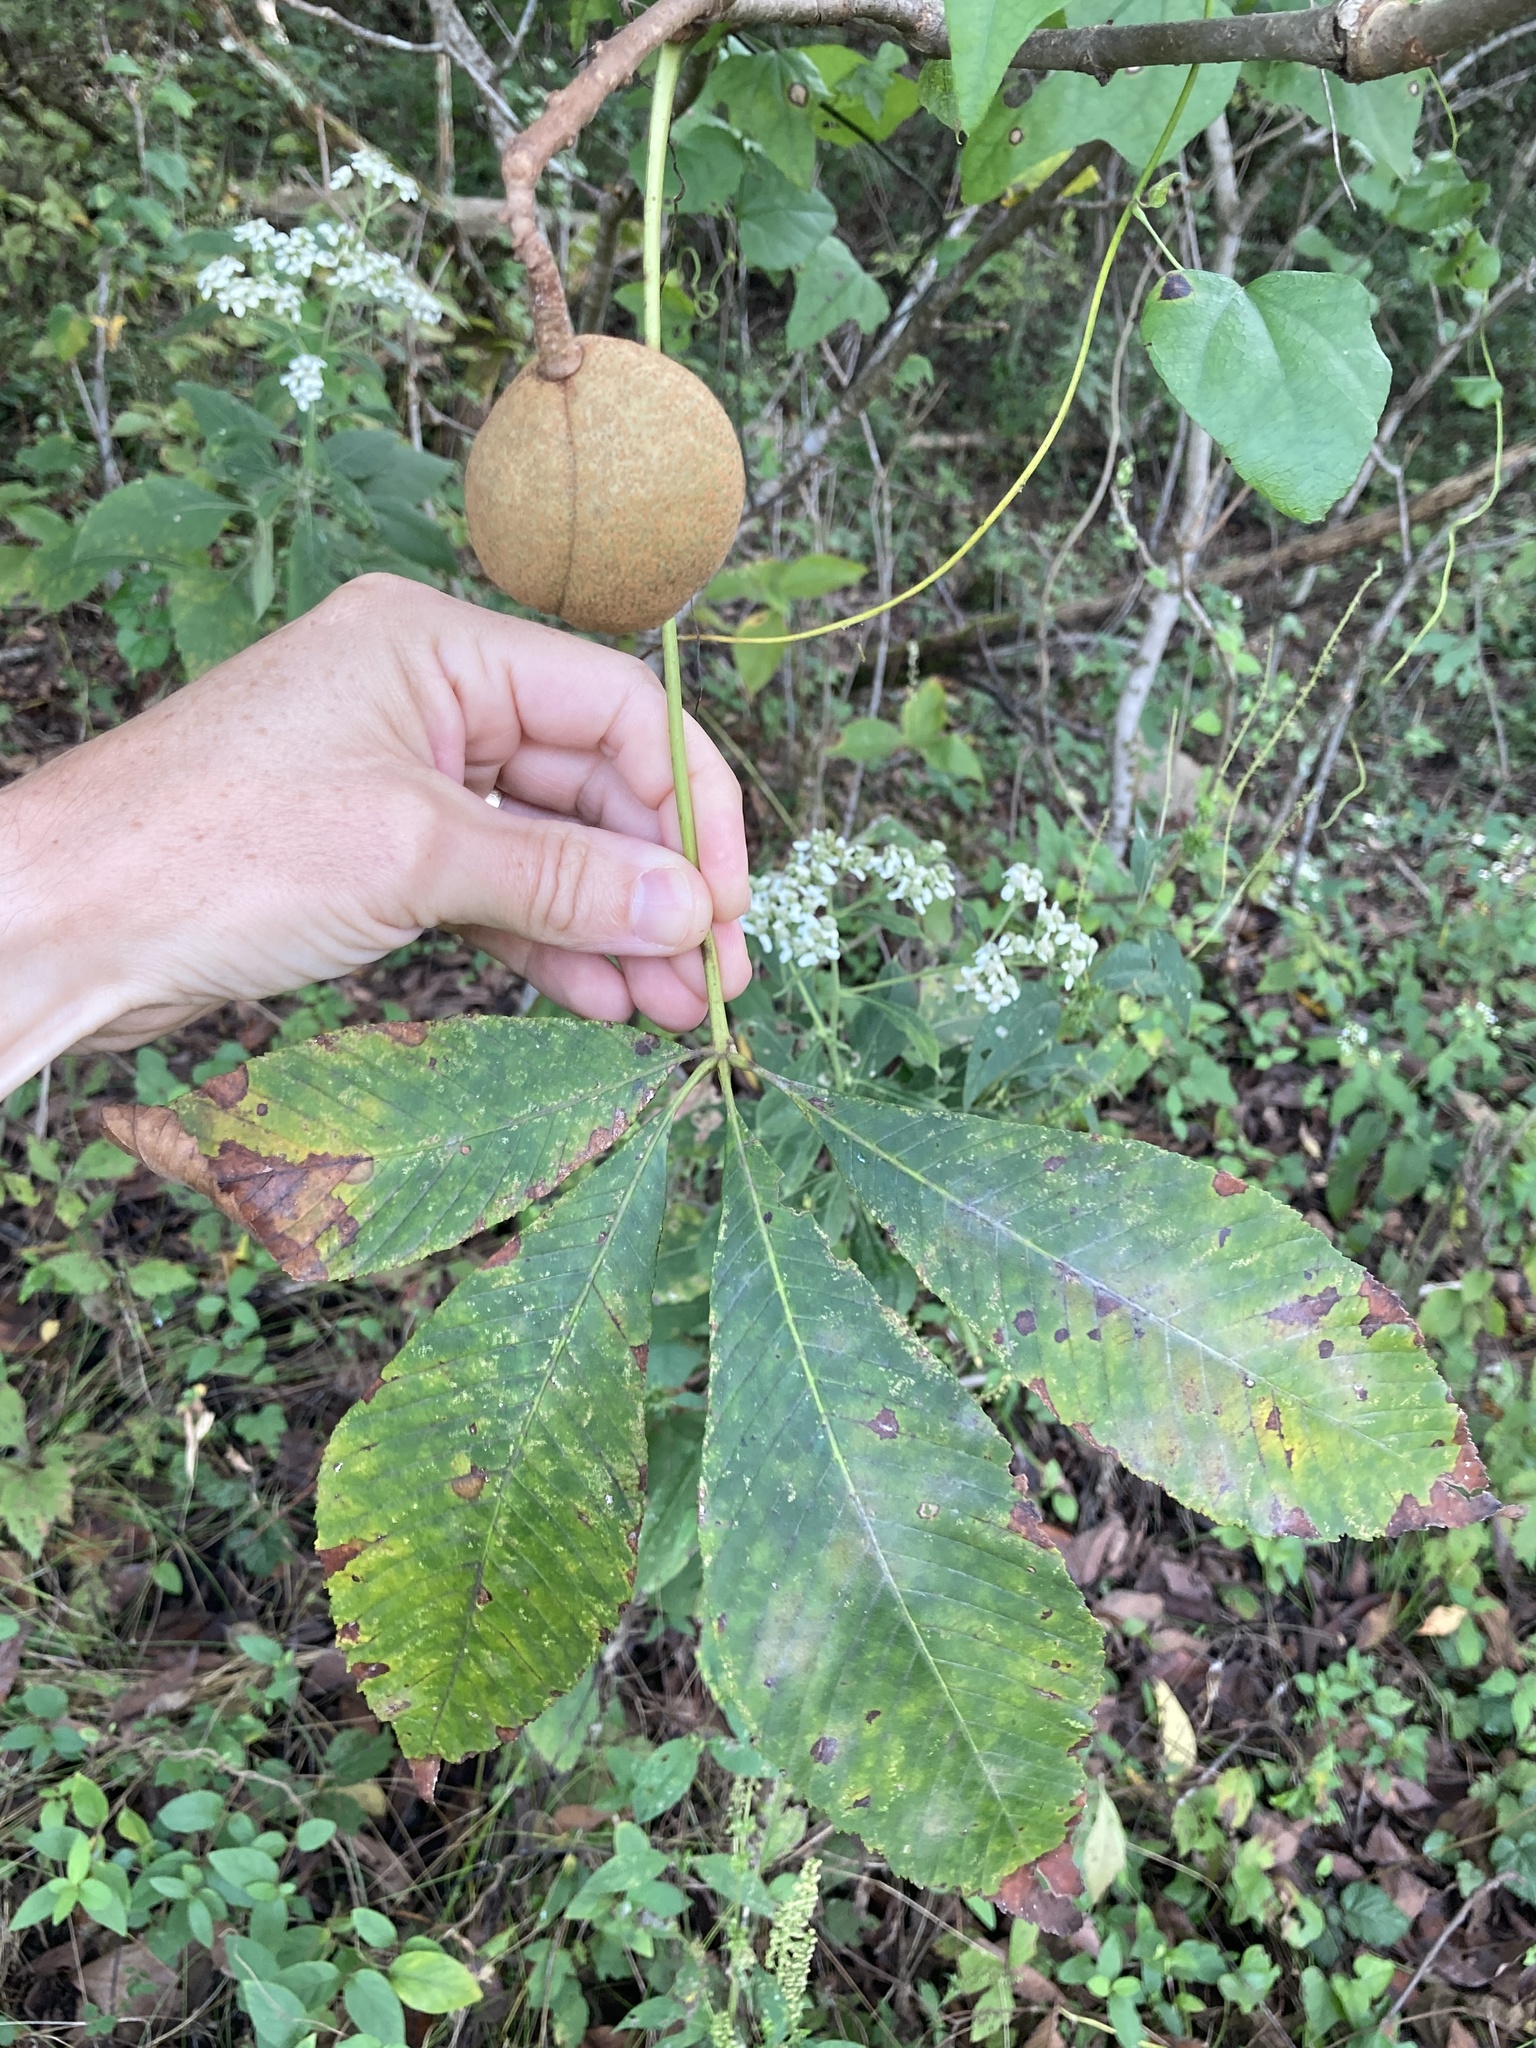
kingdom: Plantae
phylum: Tracheophyta
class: Magnoliopsida
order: Sapindales
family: Sapindaceae
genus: Aesculus
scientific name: Aesculus pavia
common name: Red buckeye
